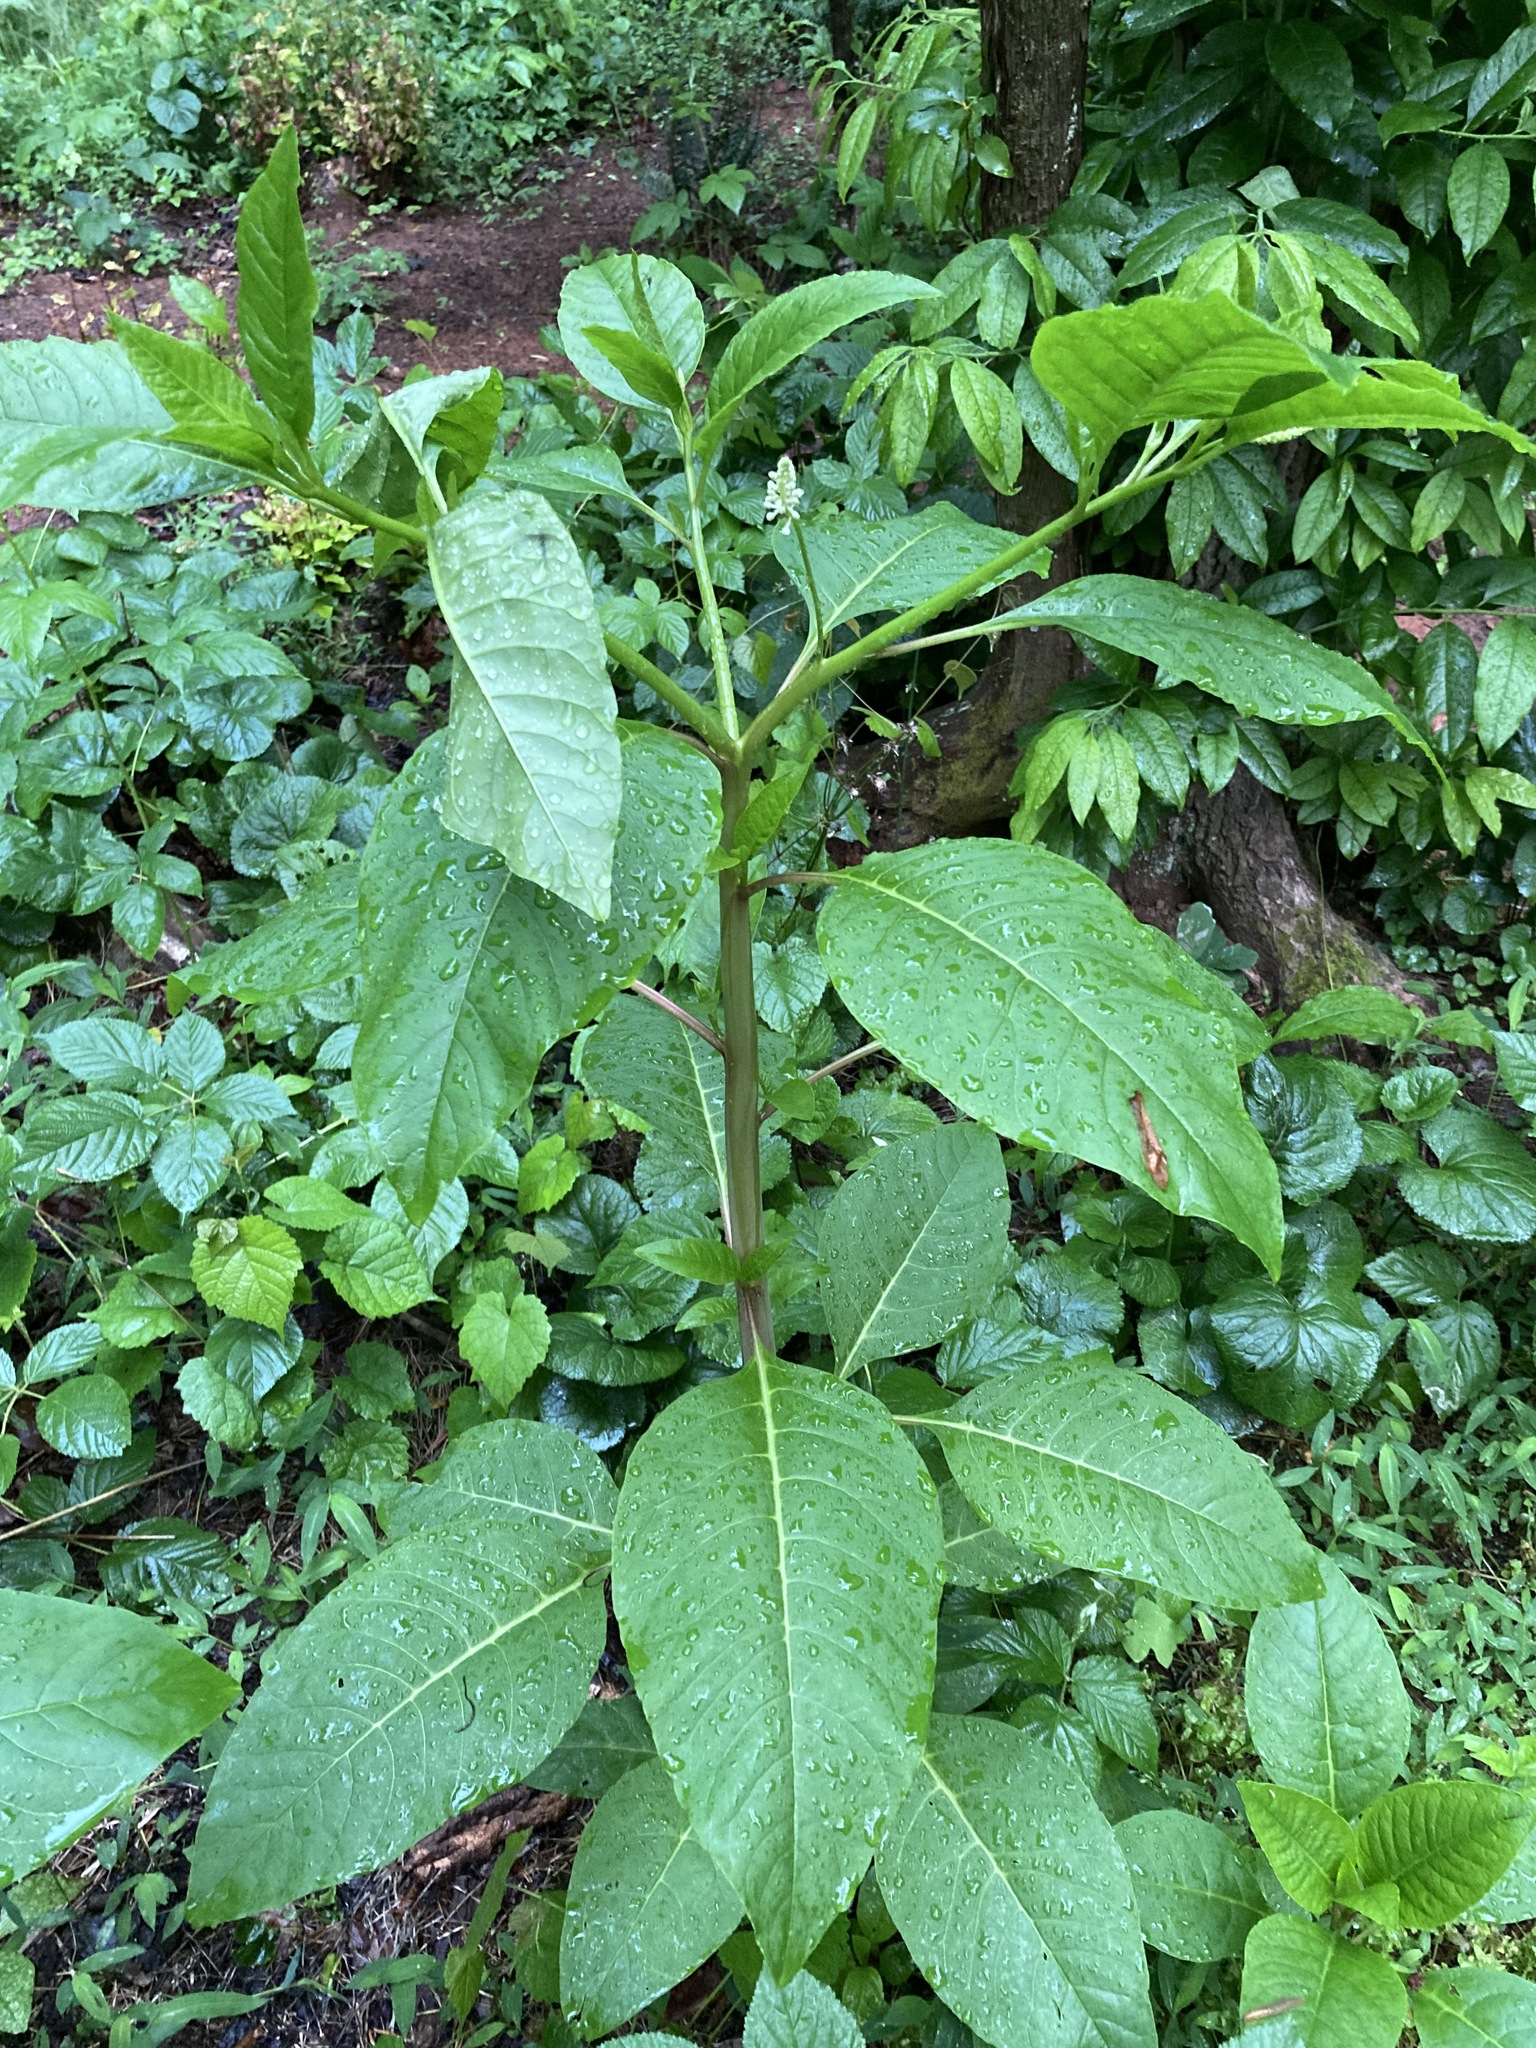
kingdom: Plantae
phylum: Tracheophyta
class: Magnoliopsida
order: Caryophyllales
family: Phytolaccaceae
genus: Phytolacca
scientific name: Phytolacca americana
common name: American pokeweed
